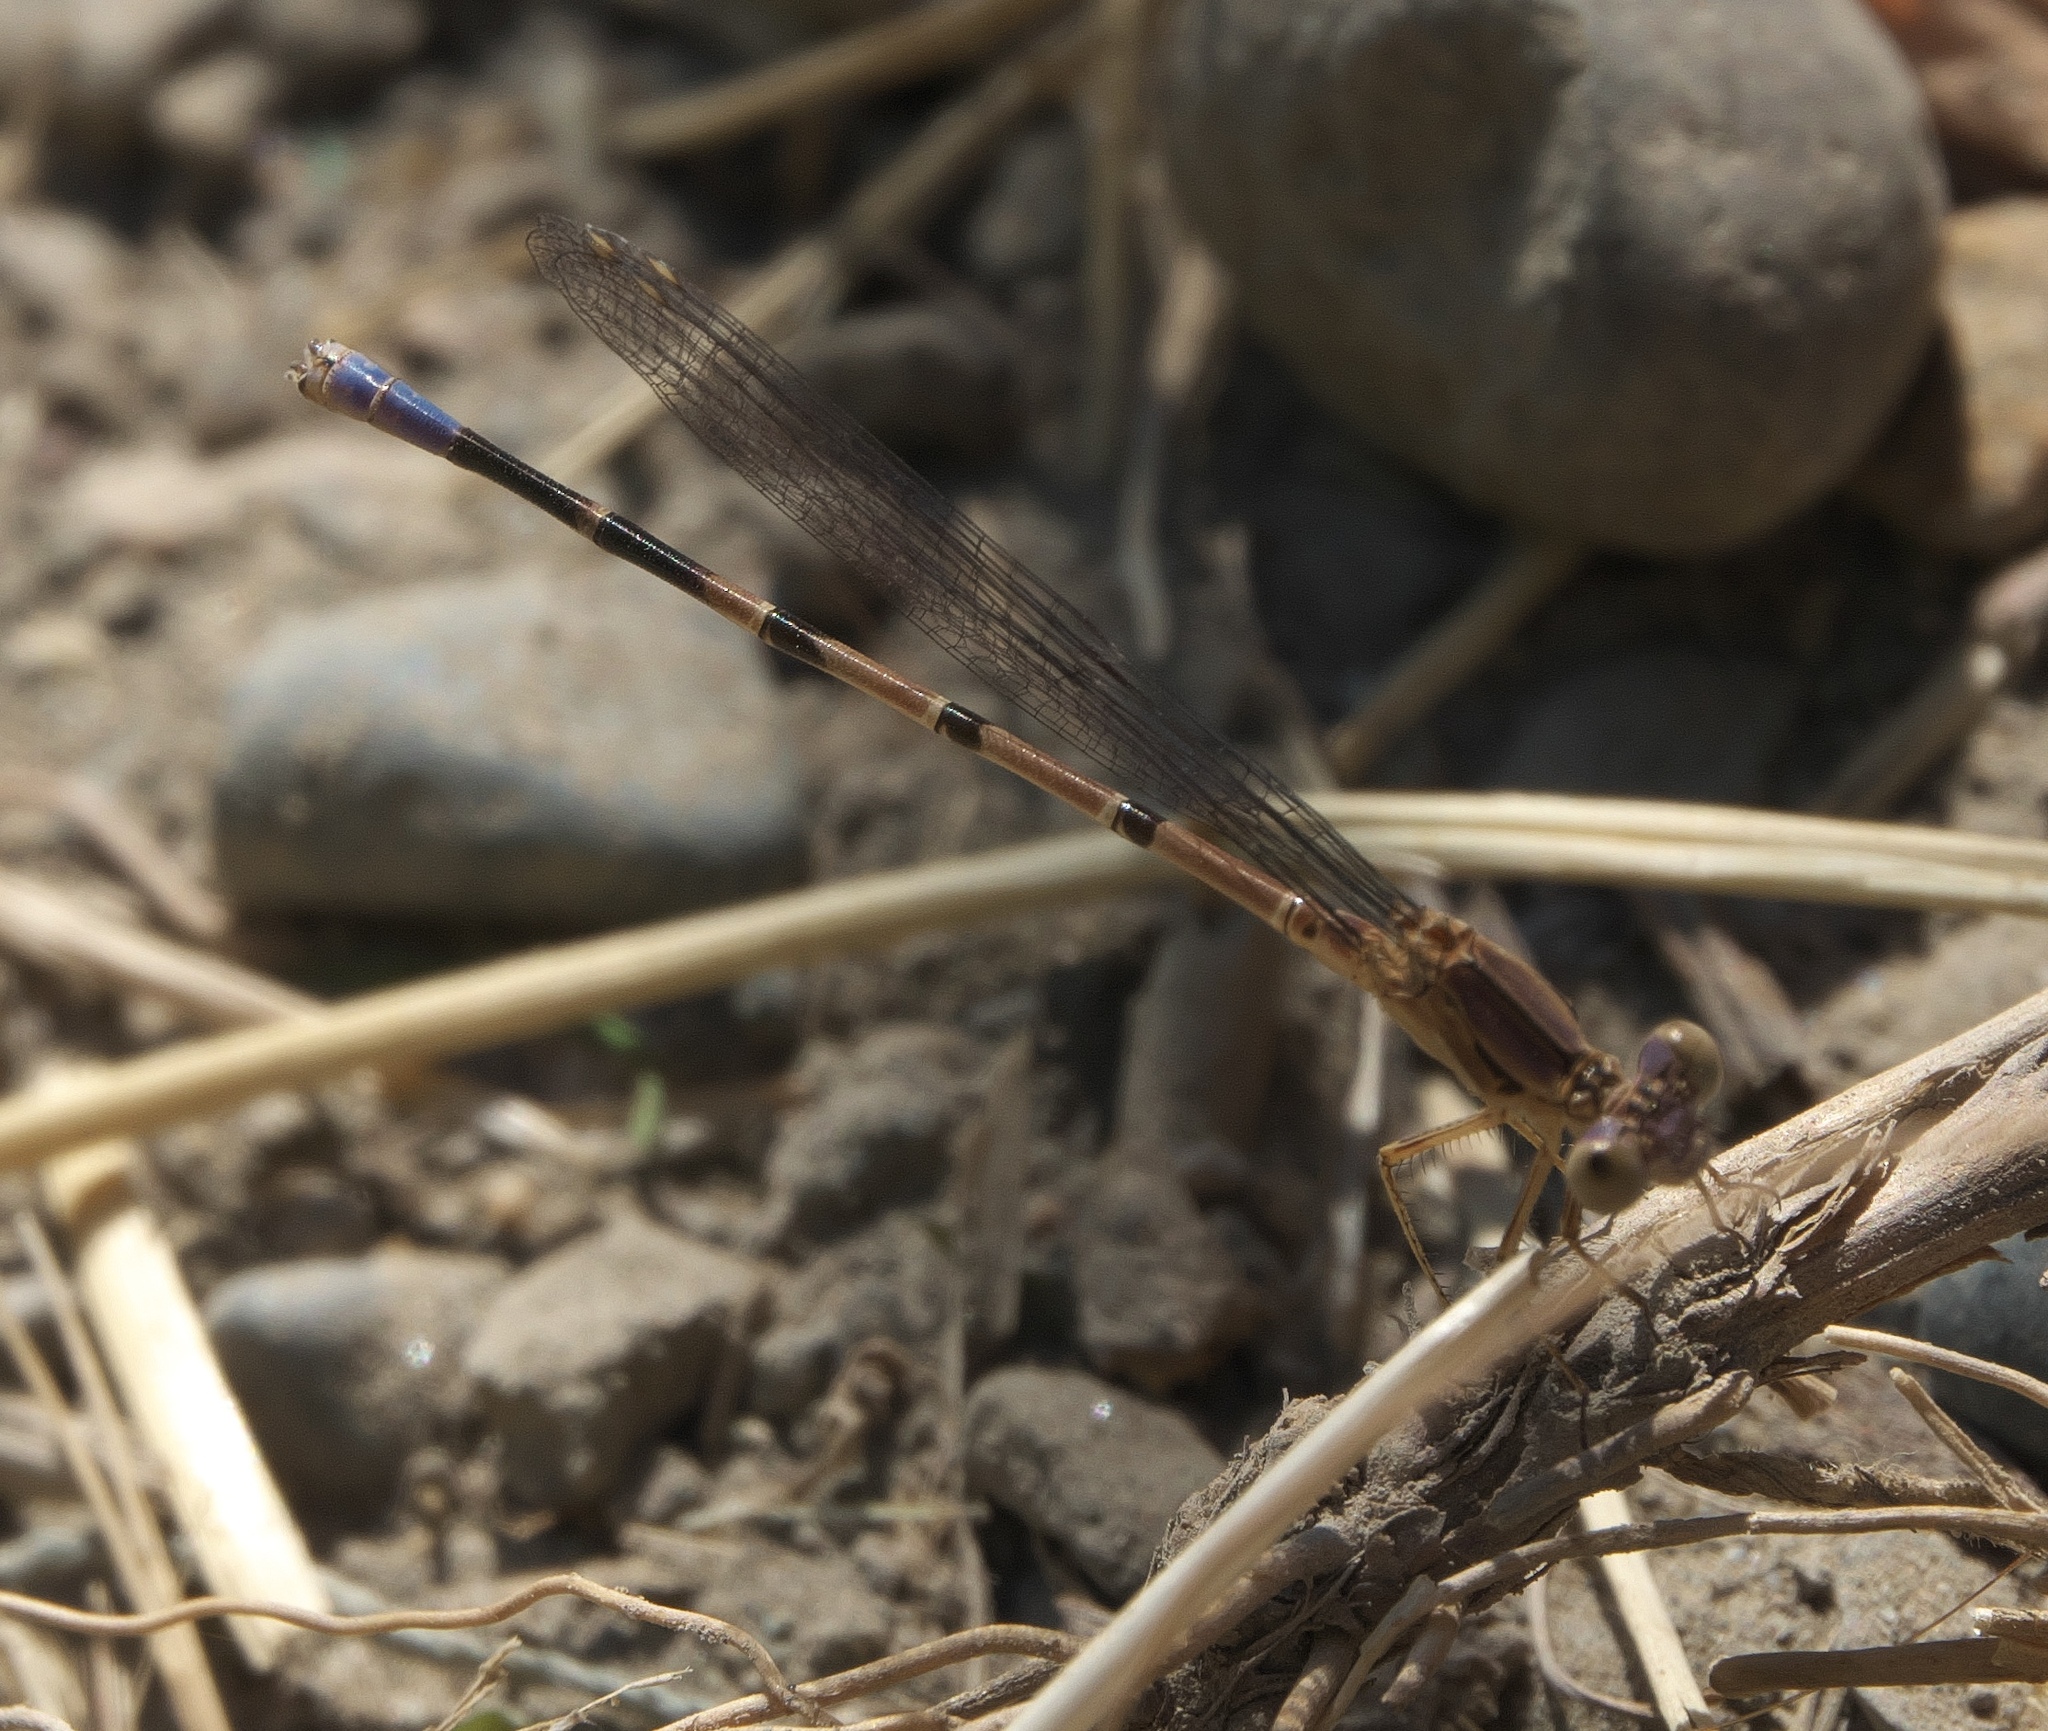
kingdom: Animalia
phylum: Arthropoda
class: Insecta
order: Odonata
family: Coenagrionidae
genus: Argia
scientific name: Argia emma
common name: Emma's dancer
